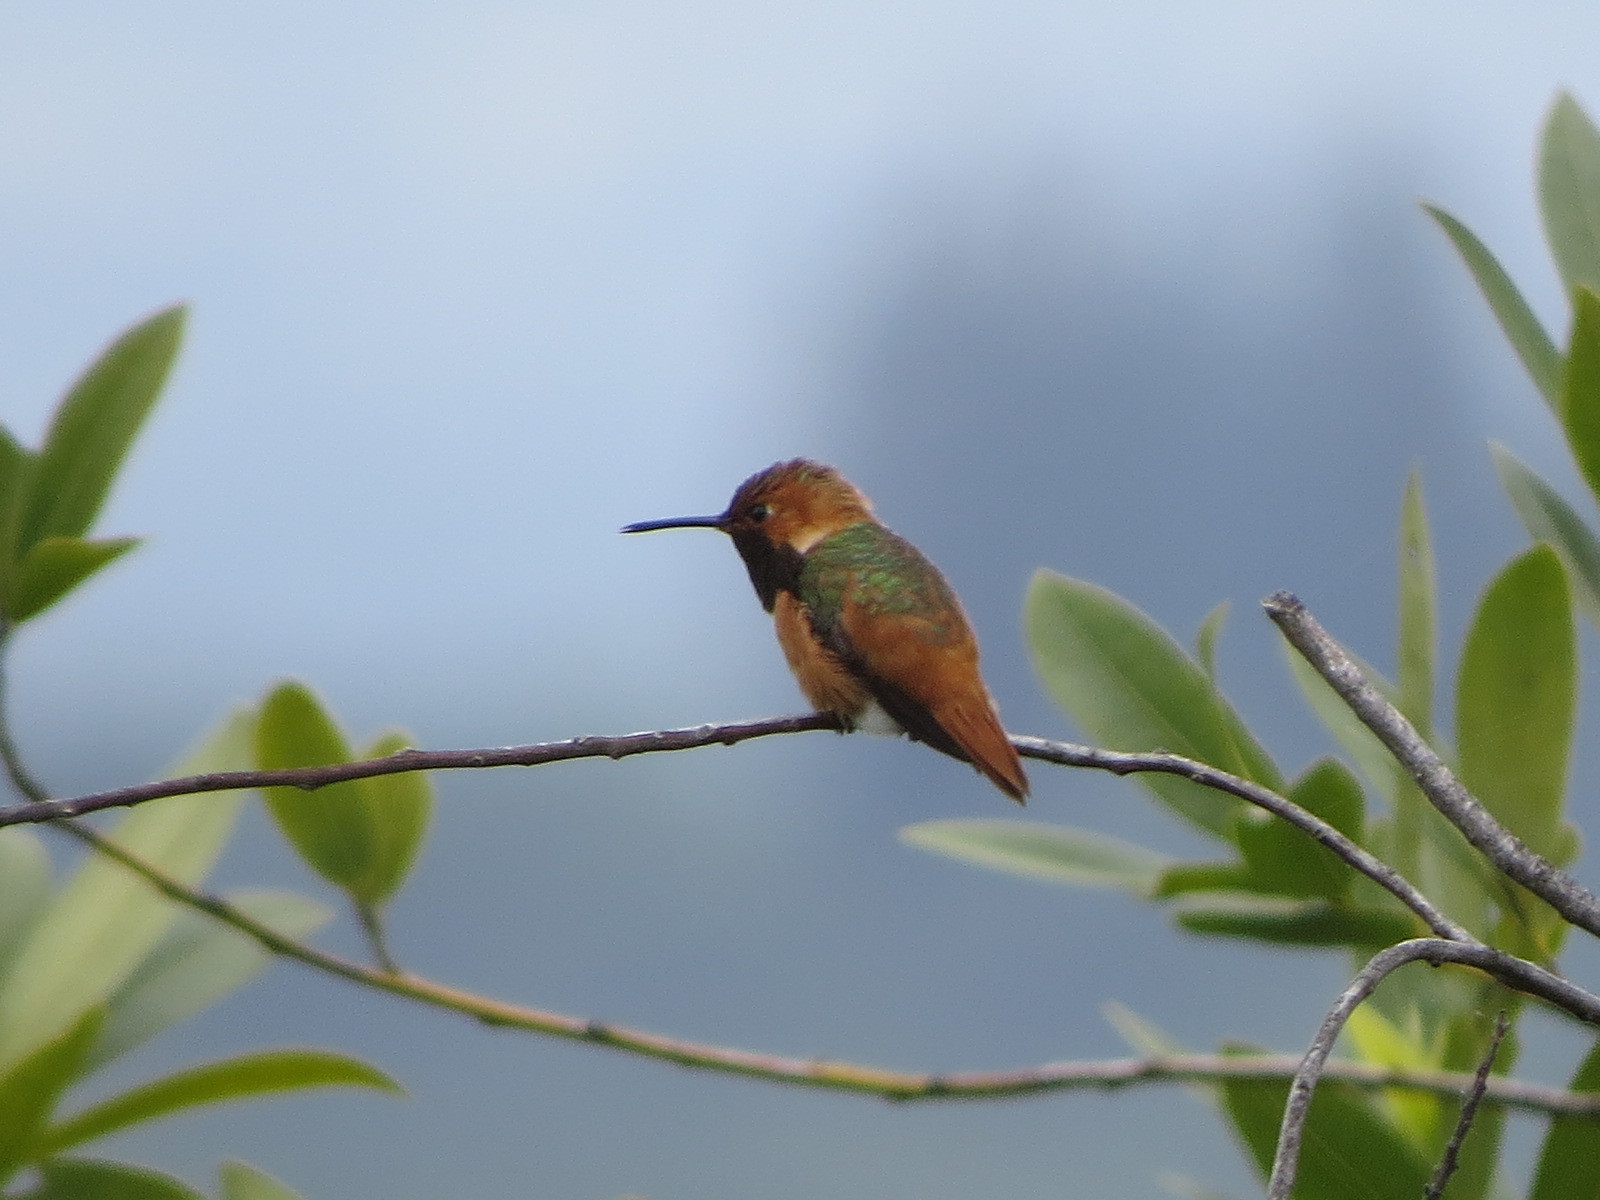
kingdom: Animalia
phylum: Chordata
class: Aves
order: Apodiformes
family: Trochilidae
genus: Selasphorus
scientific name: Selasphorus sasin
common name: Allen's hummingbird
